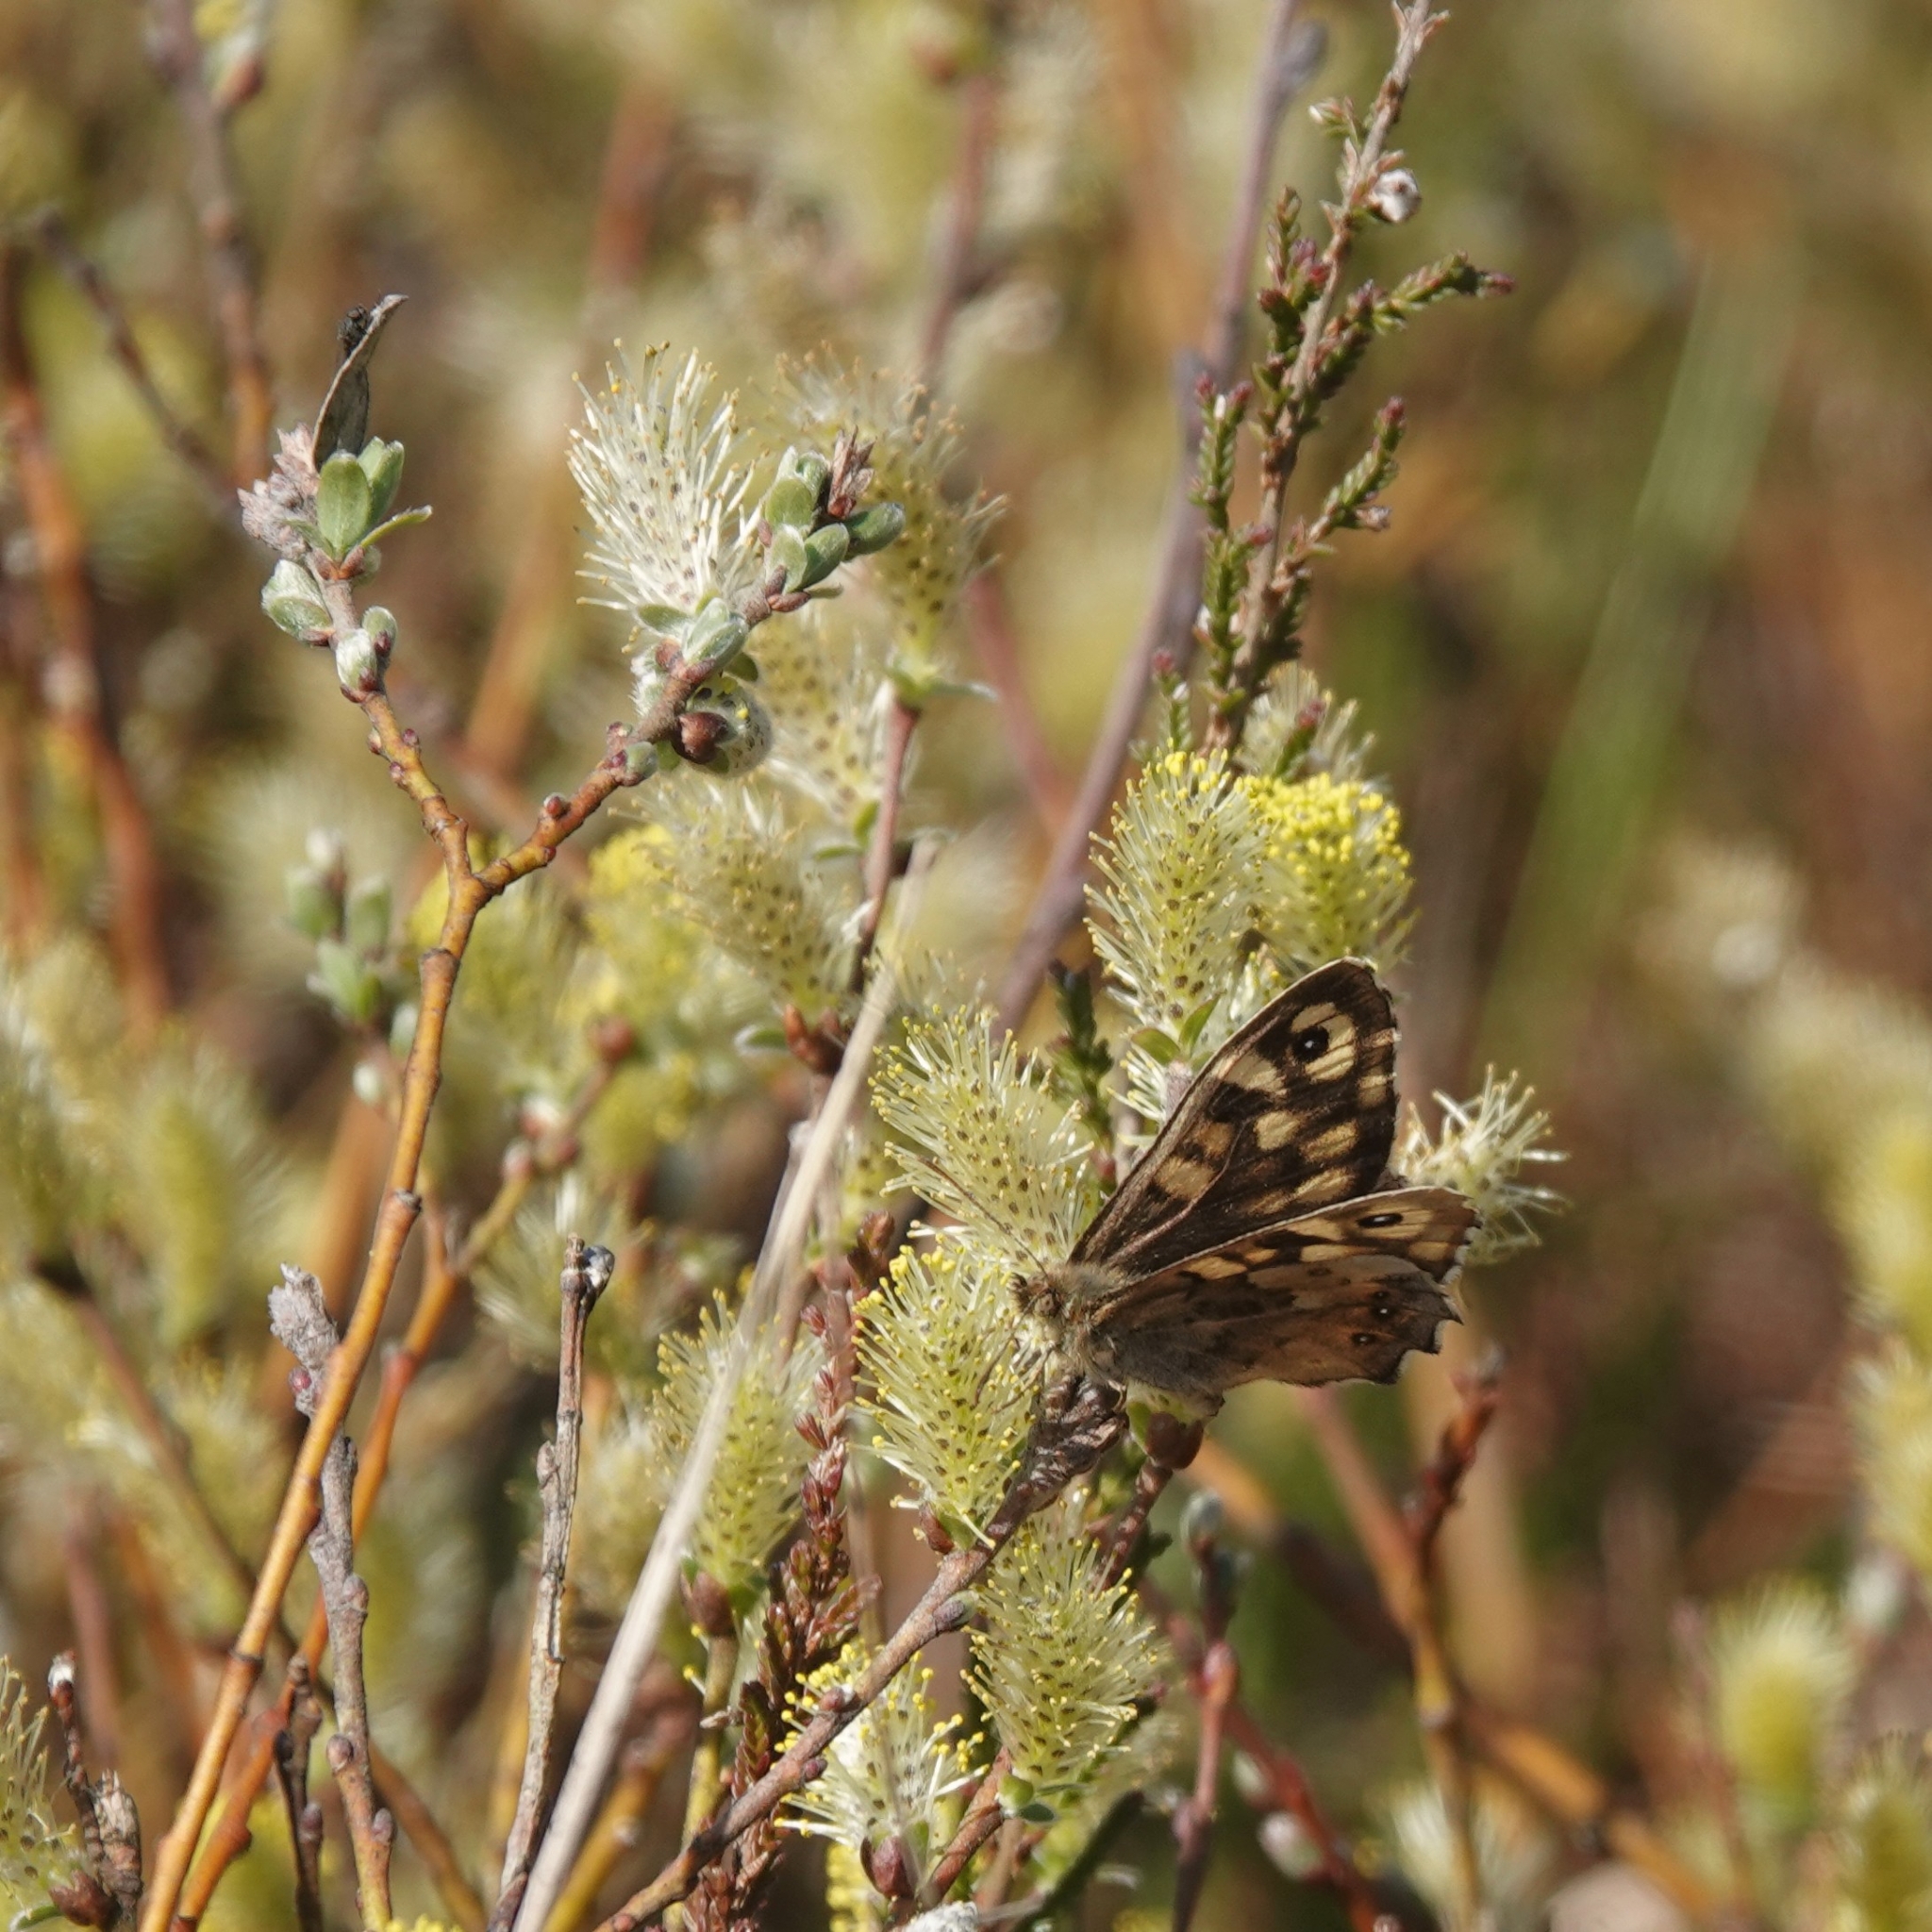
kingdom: Animalia
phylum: Arthropoda
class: Insecta
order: Lepidoptera
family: Nymphalidae
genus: Pararge
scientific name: Pararge aegeria
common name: Speckled wood
